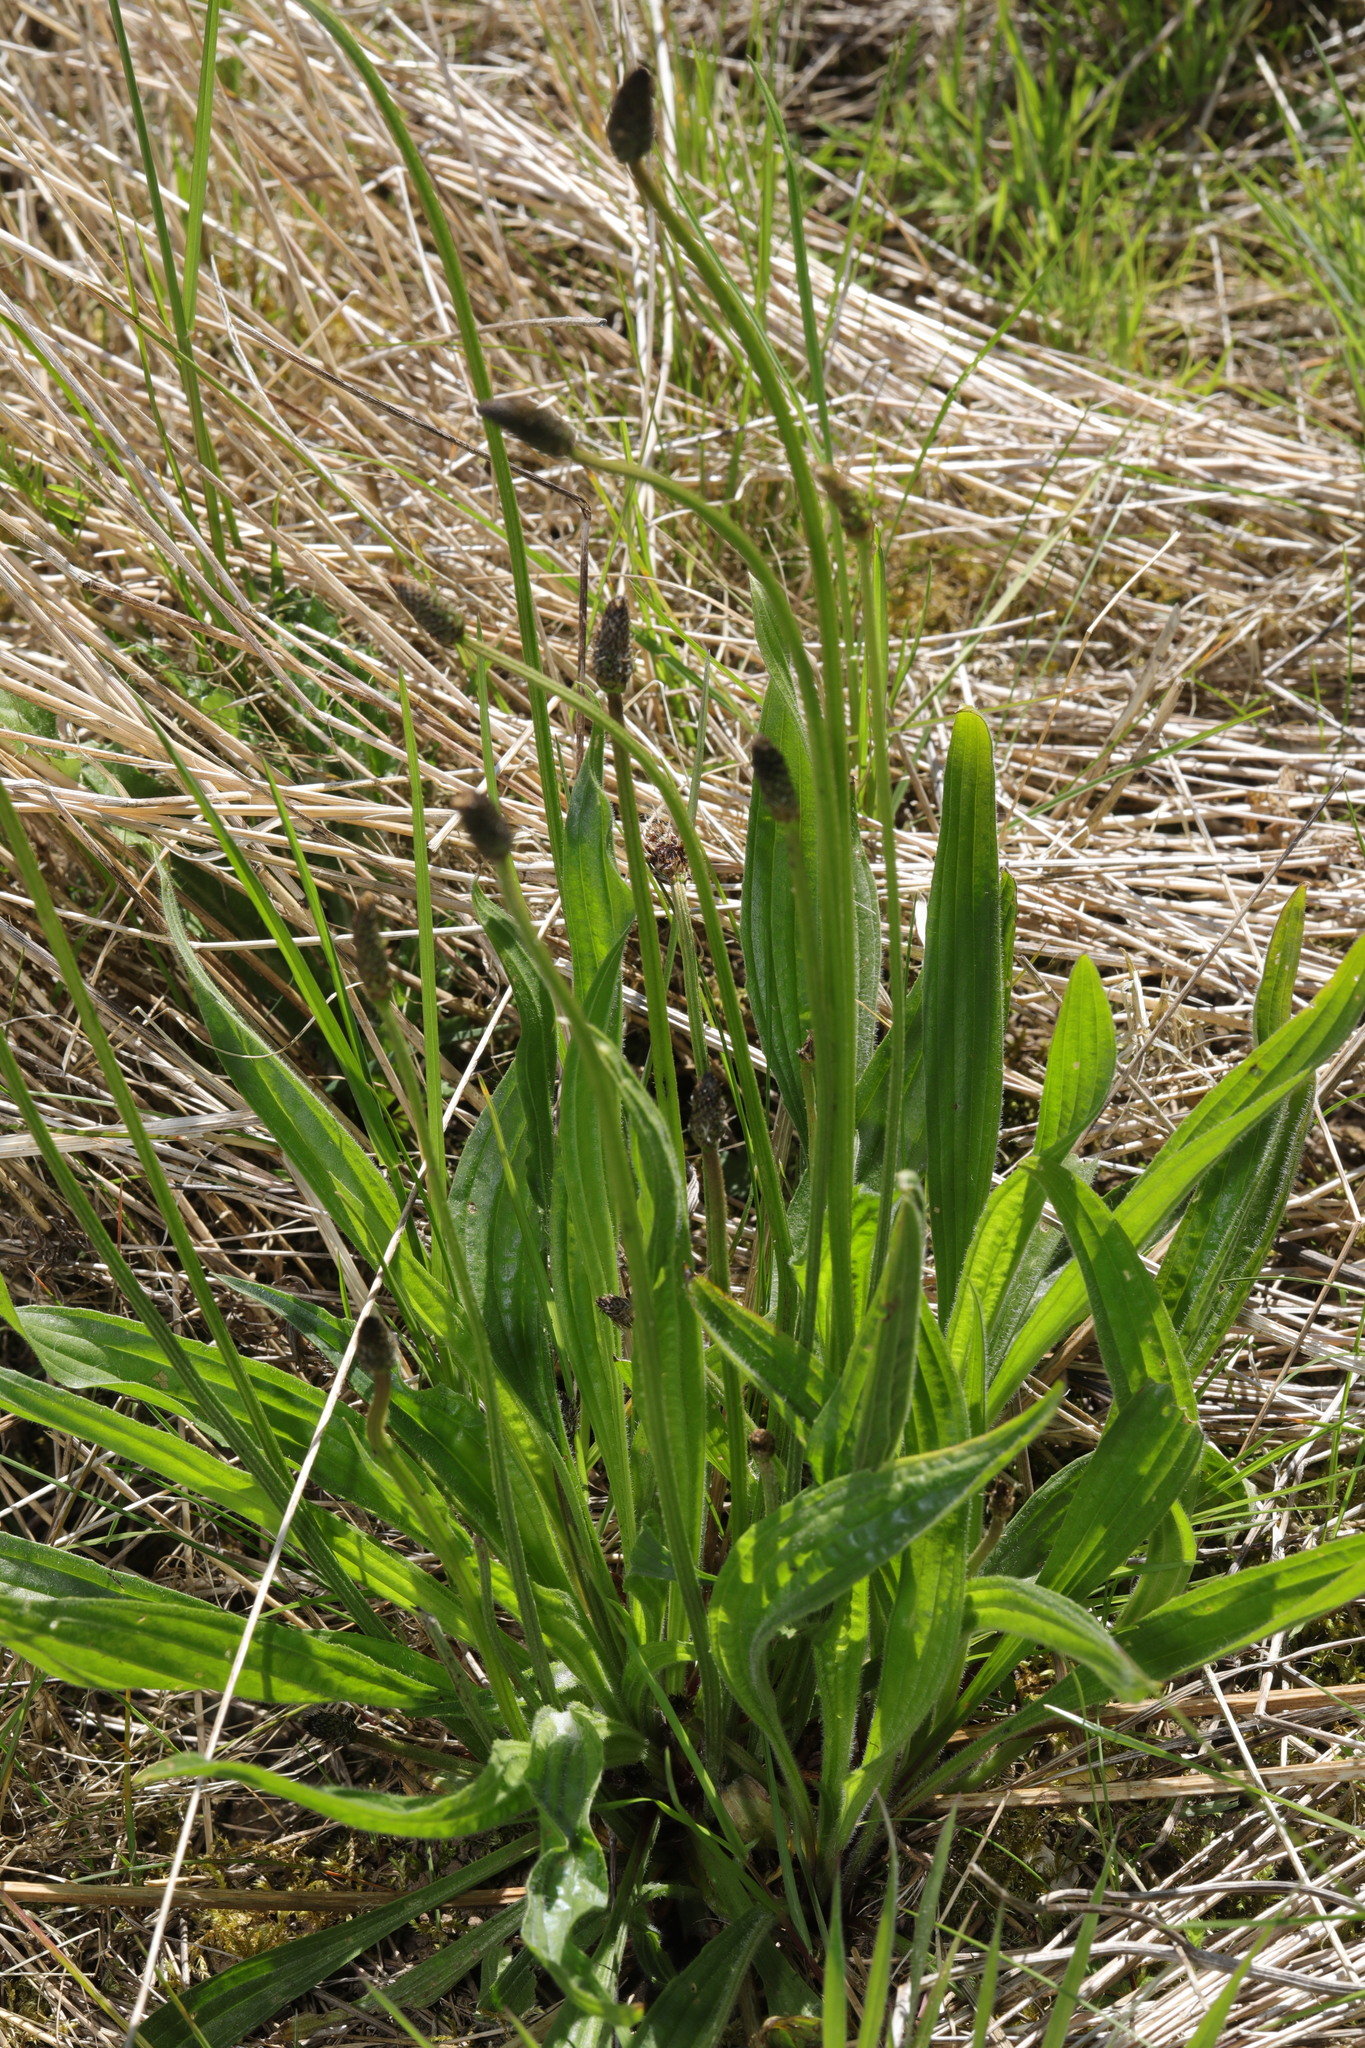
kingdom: Plantae
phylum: Tracheophyta
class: Magnoliopsida
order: Lamiales
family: Plantaginaceae
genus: Plantago
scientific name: Plantago lanceolata
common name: Ribwort plantain
